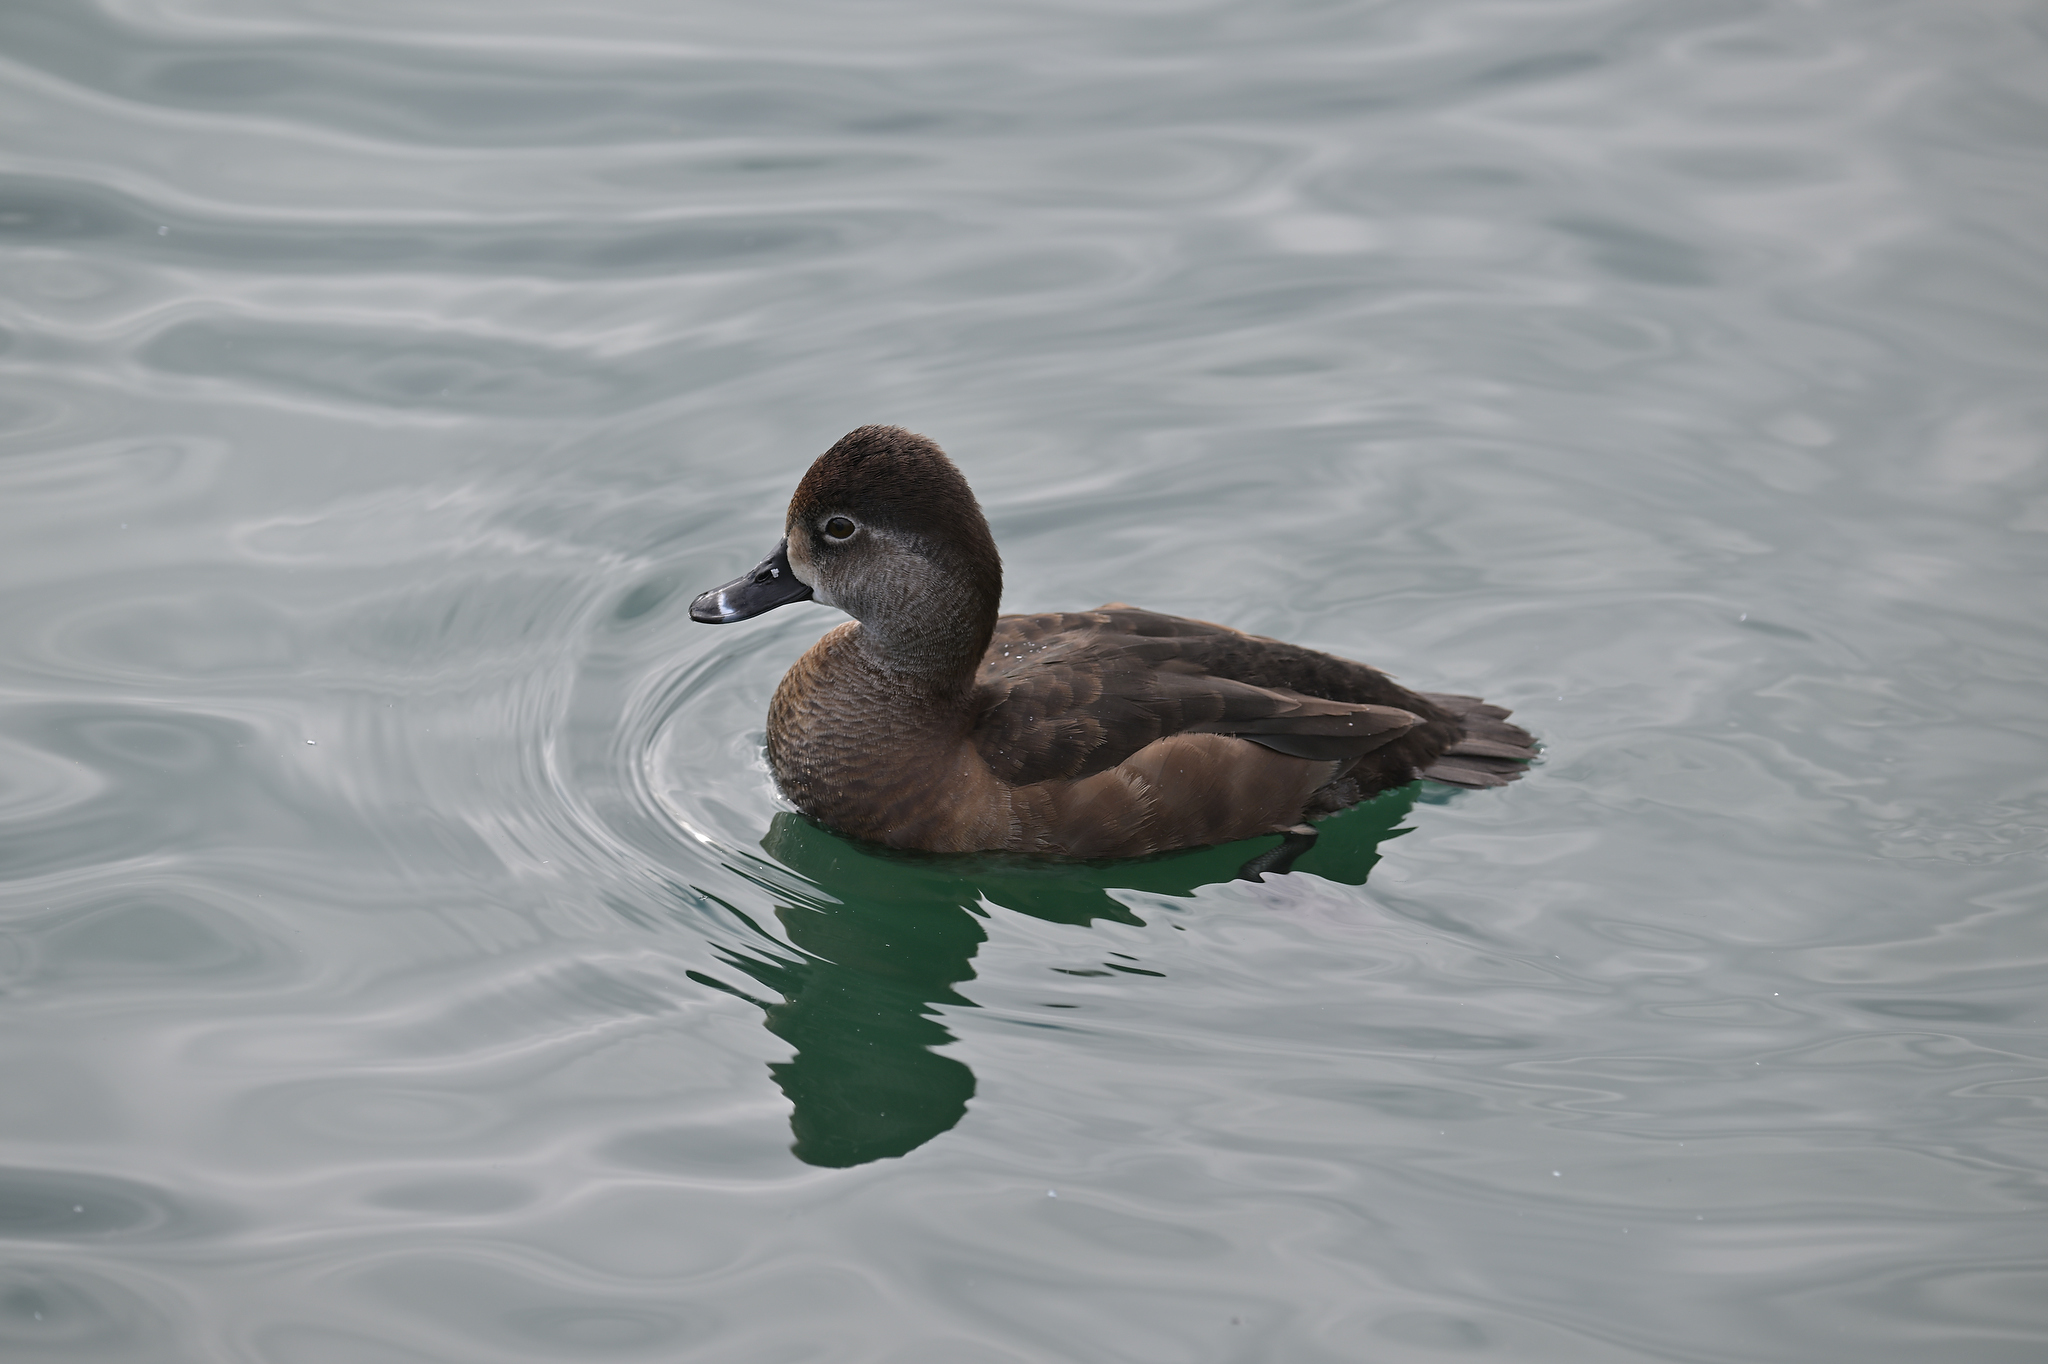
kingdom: Animalia
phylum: Chordata
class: Aves
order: Anseriformes
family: Anatidae
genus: Aythya
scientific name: Aythya collaris
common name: Ring-necked duck
